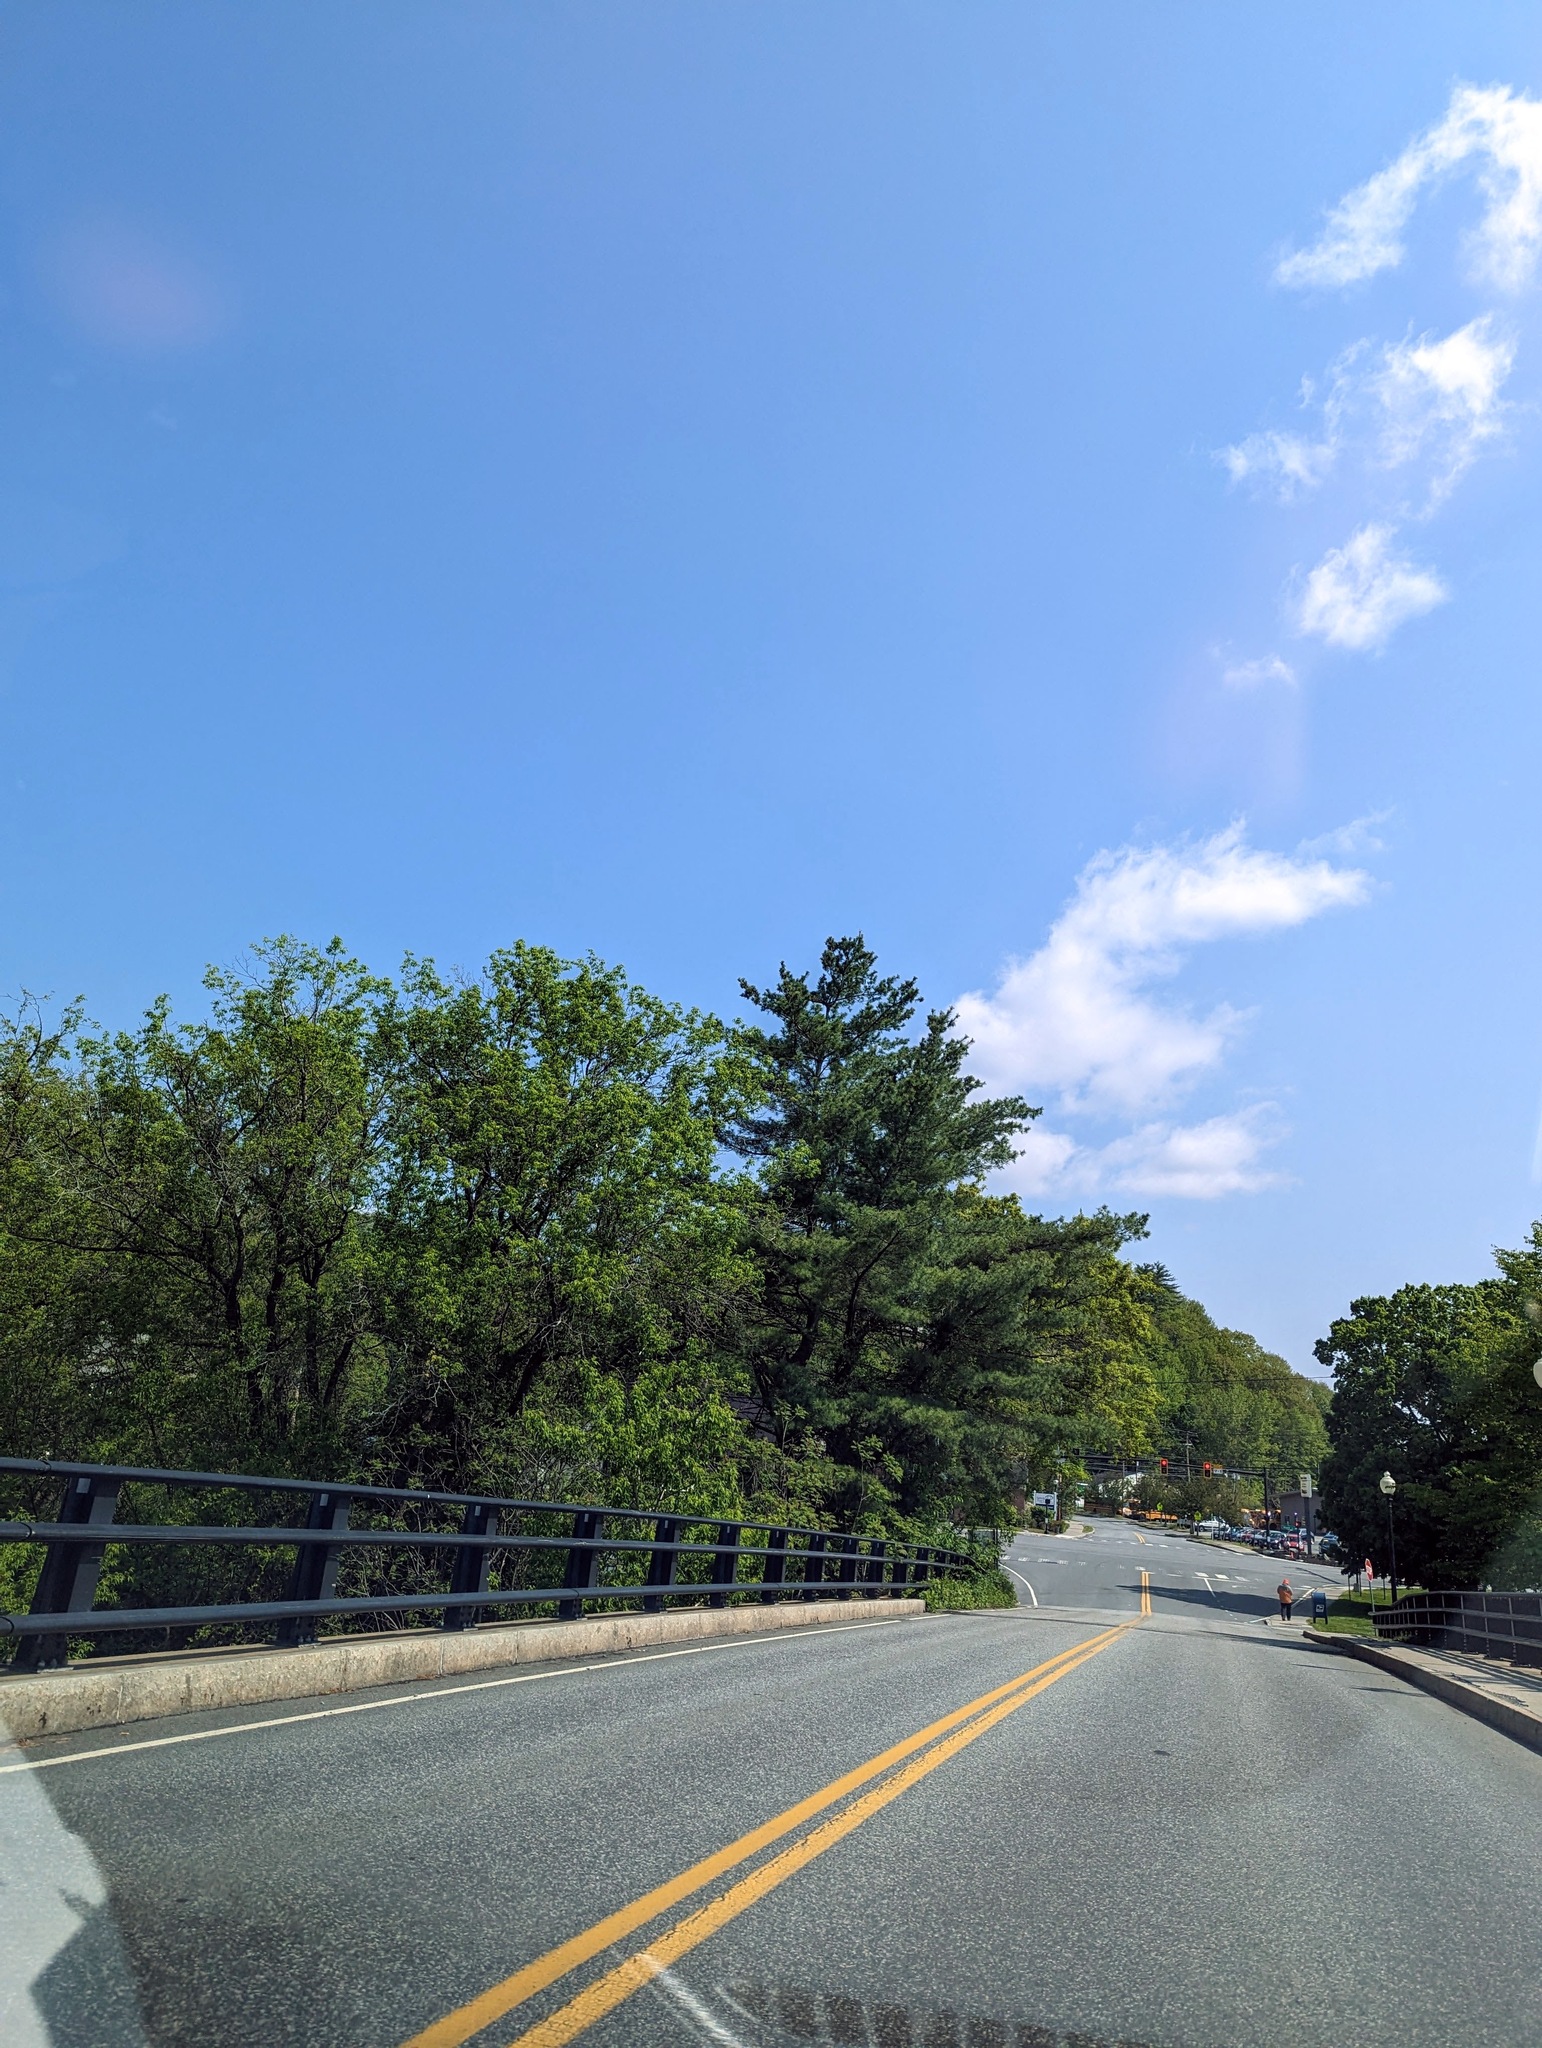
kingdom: Plantae
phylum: Tracheophyta
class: Pinopsida
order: Pinales
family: Pinaceae
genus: Pinus
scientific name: Pinus strobus
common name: Weymouth pine
